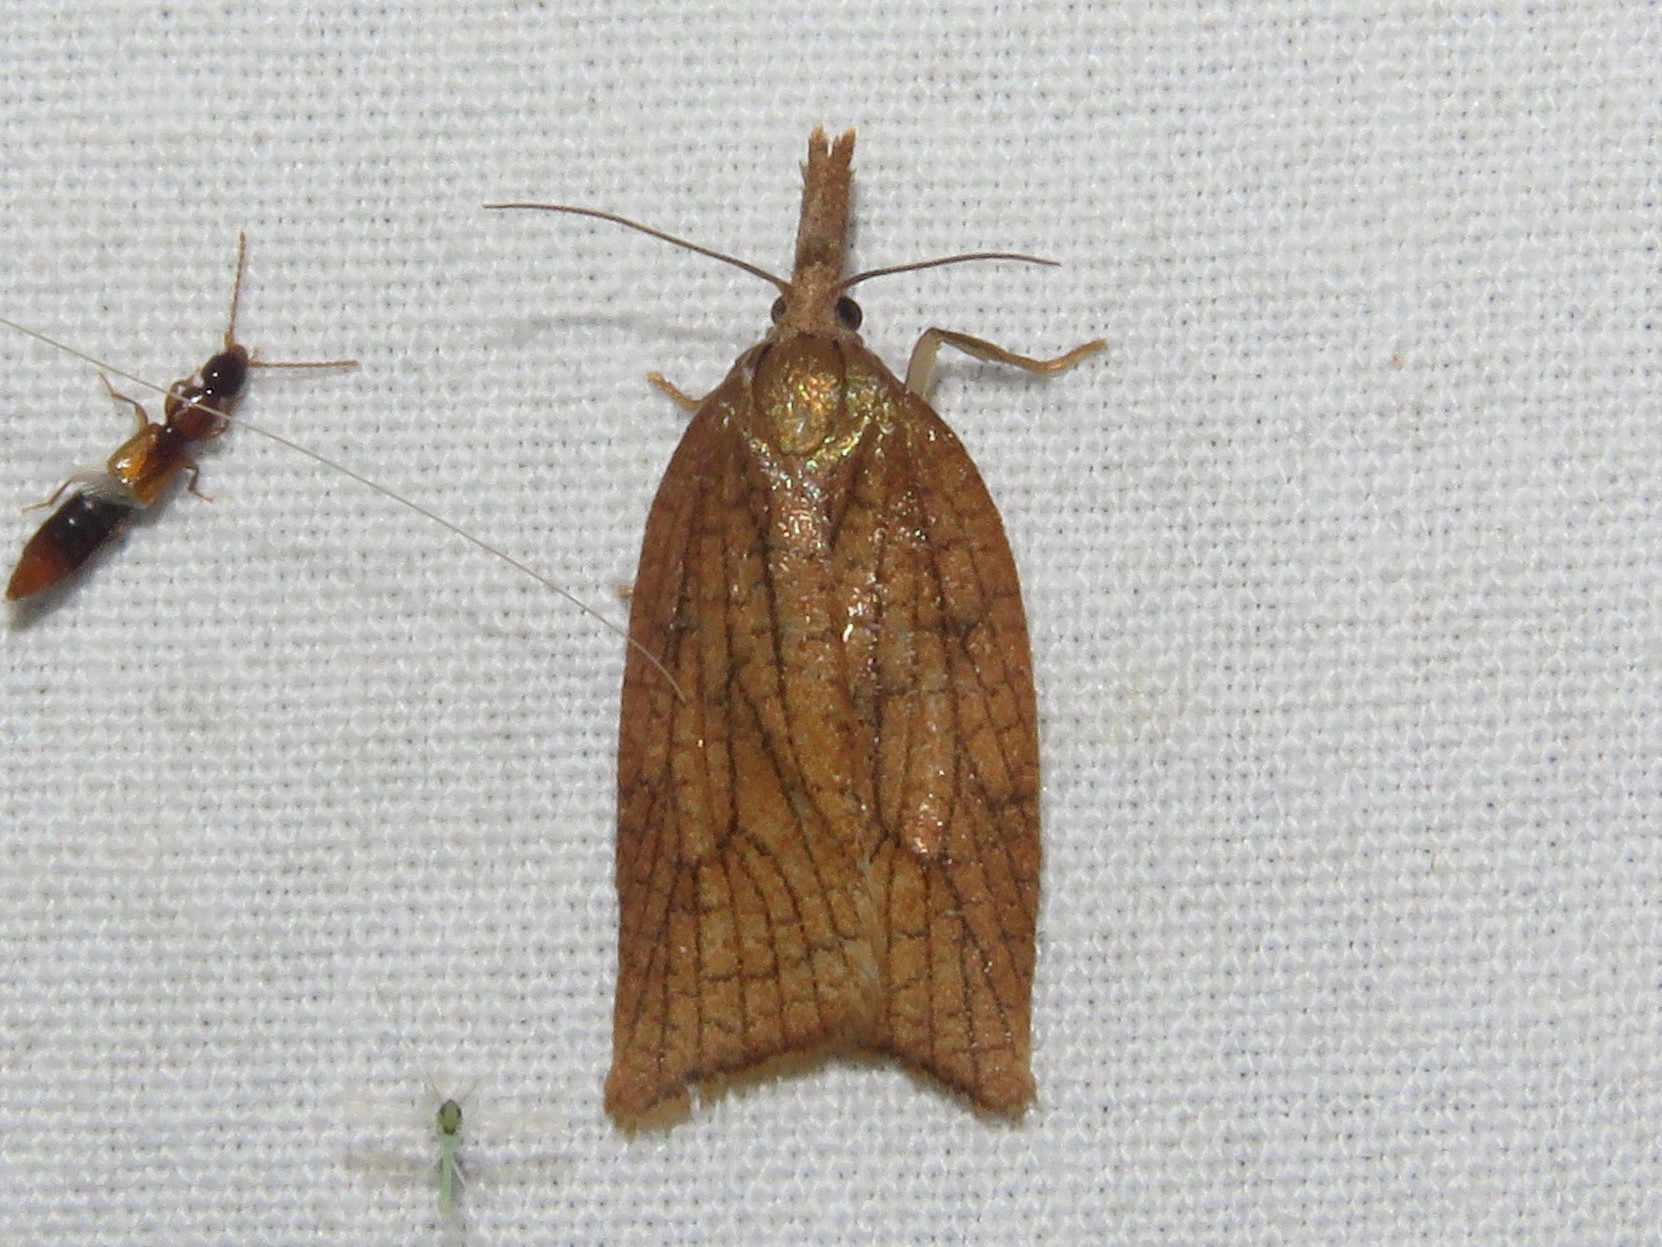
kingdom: Animalia
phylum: Arthropoda
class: Insecta
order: Lepidoptera
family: Tortricidae
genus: Sparganothis
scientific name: Sparganothis xanthoides
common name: Mosaic sparganothis moth
